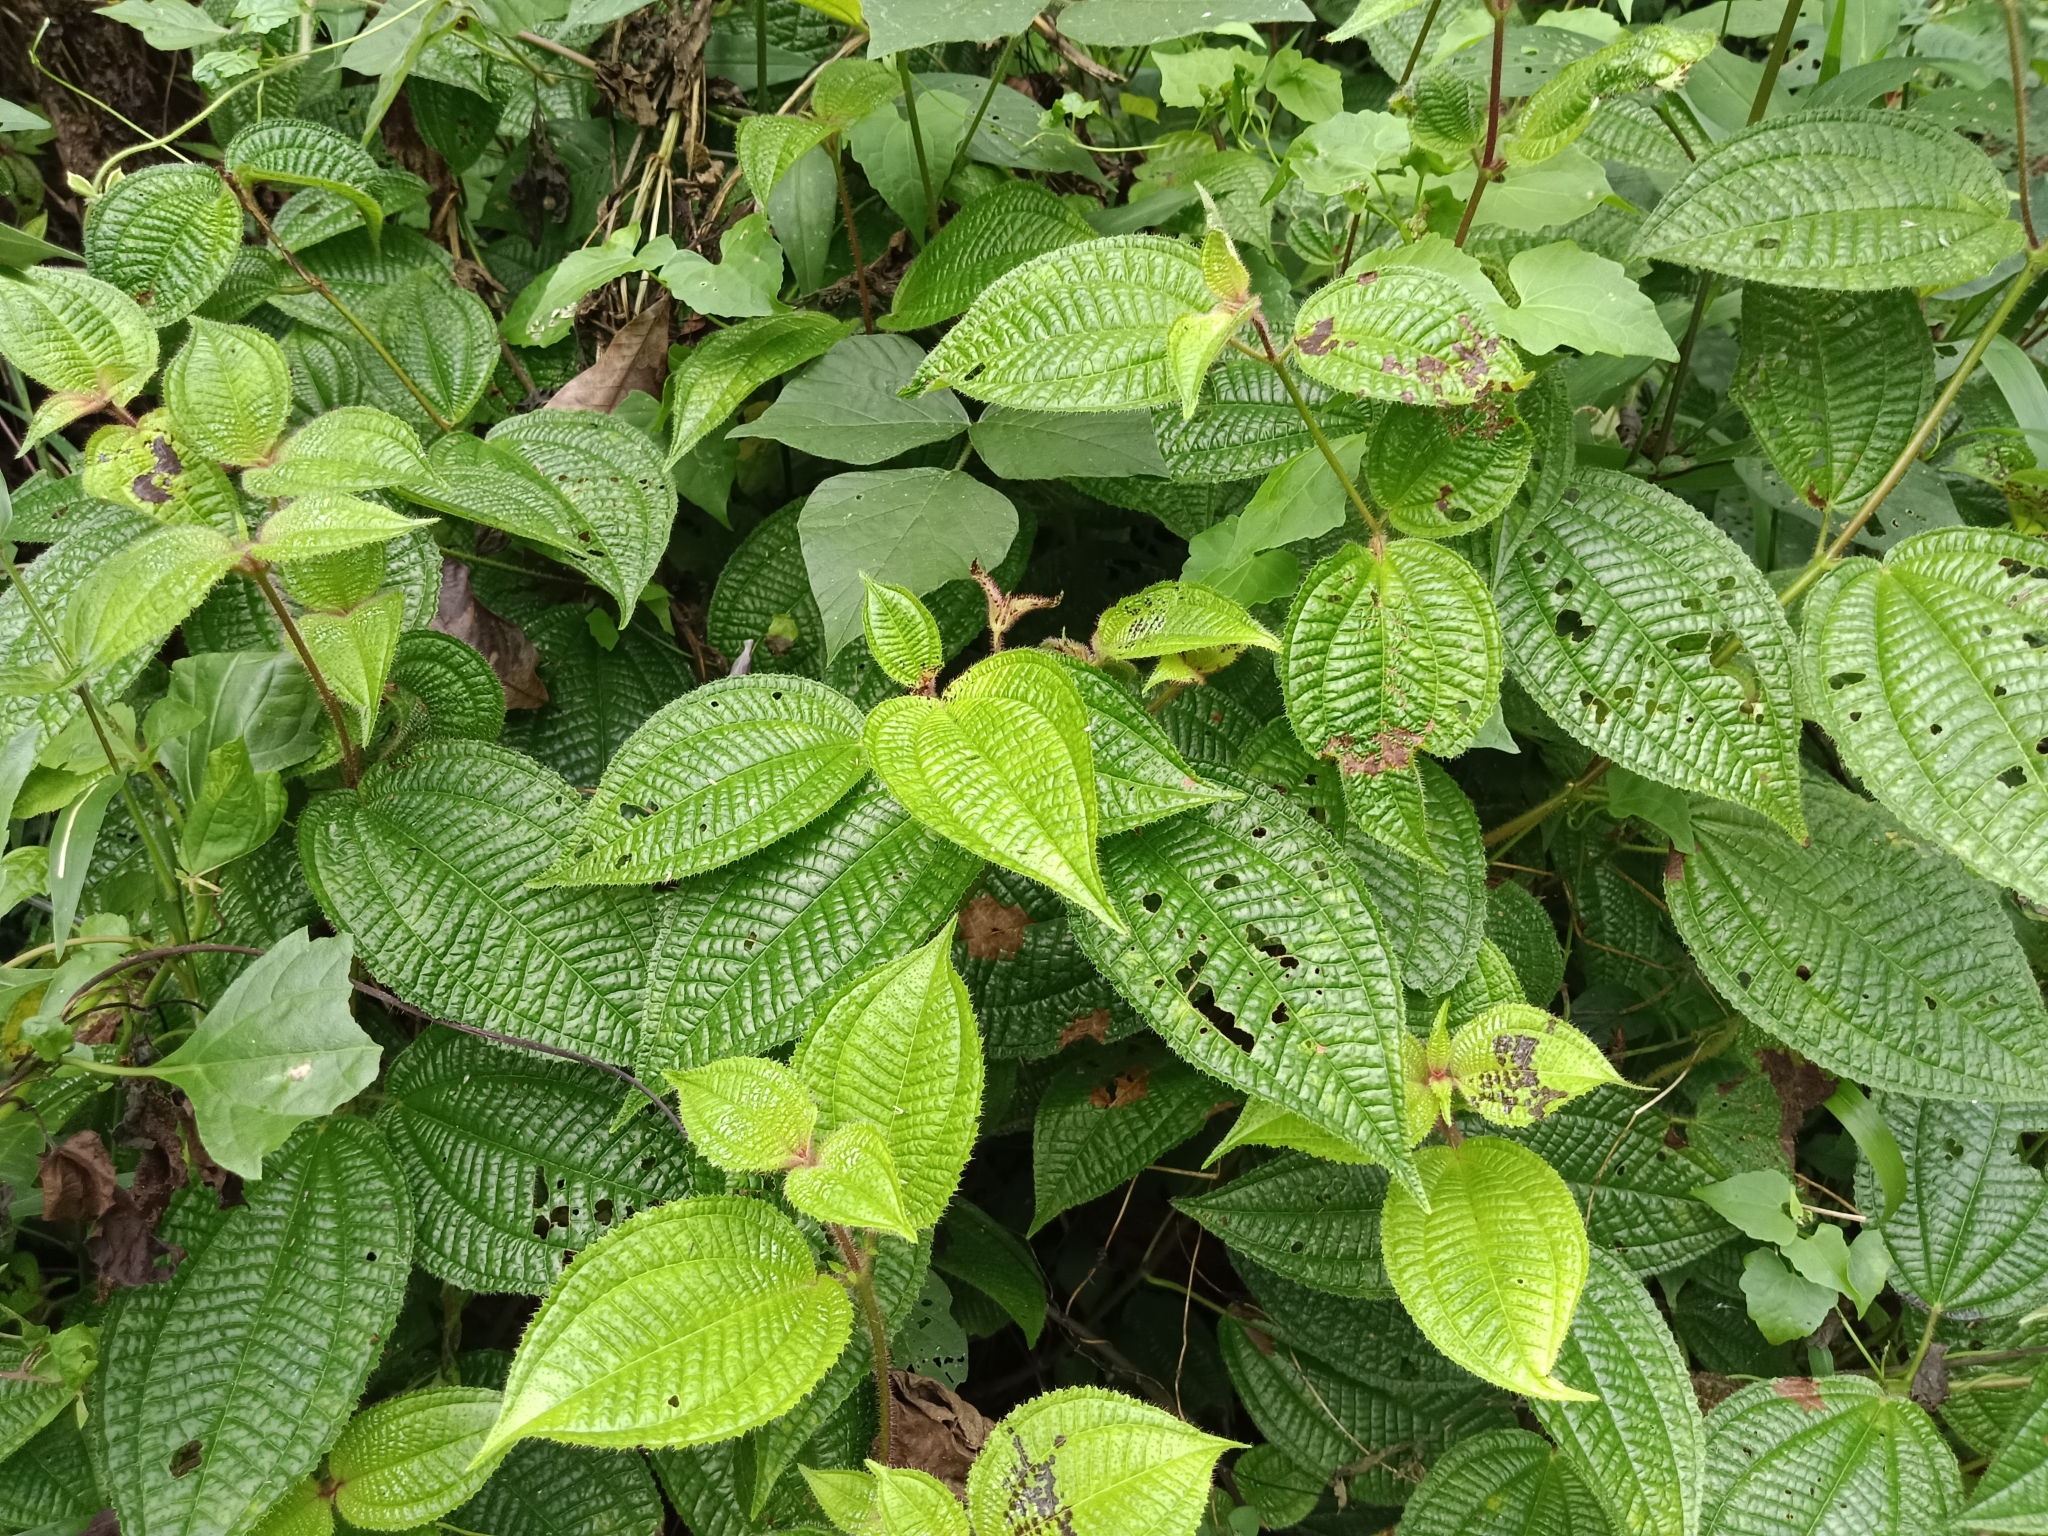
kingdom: Plantae
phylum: Tracheophyta
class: Magnoliopsida
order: Myrtales
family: Melastomataceae
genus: Miconia
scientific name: Miconia crenata
